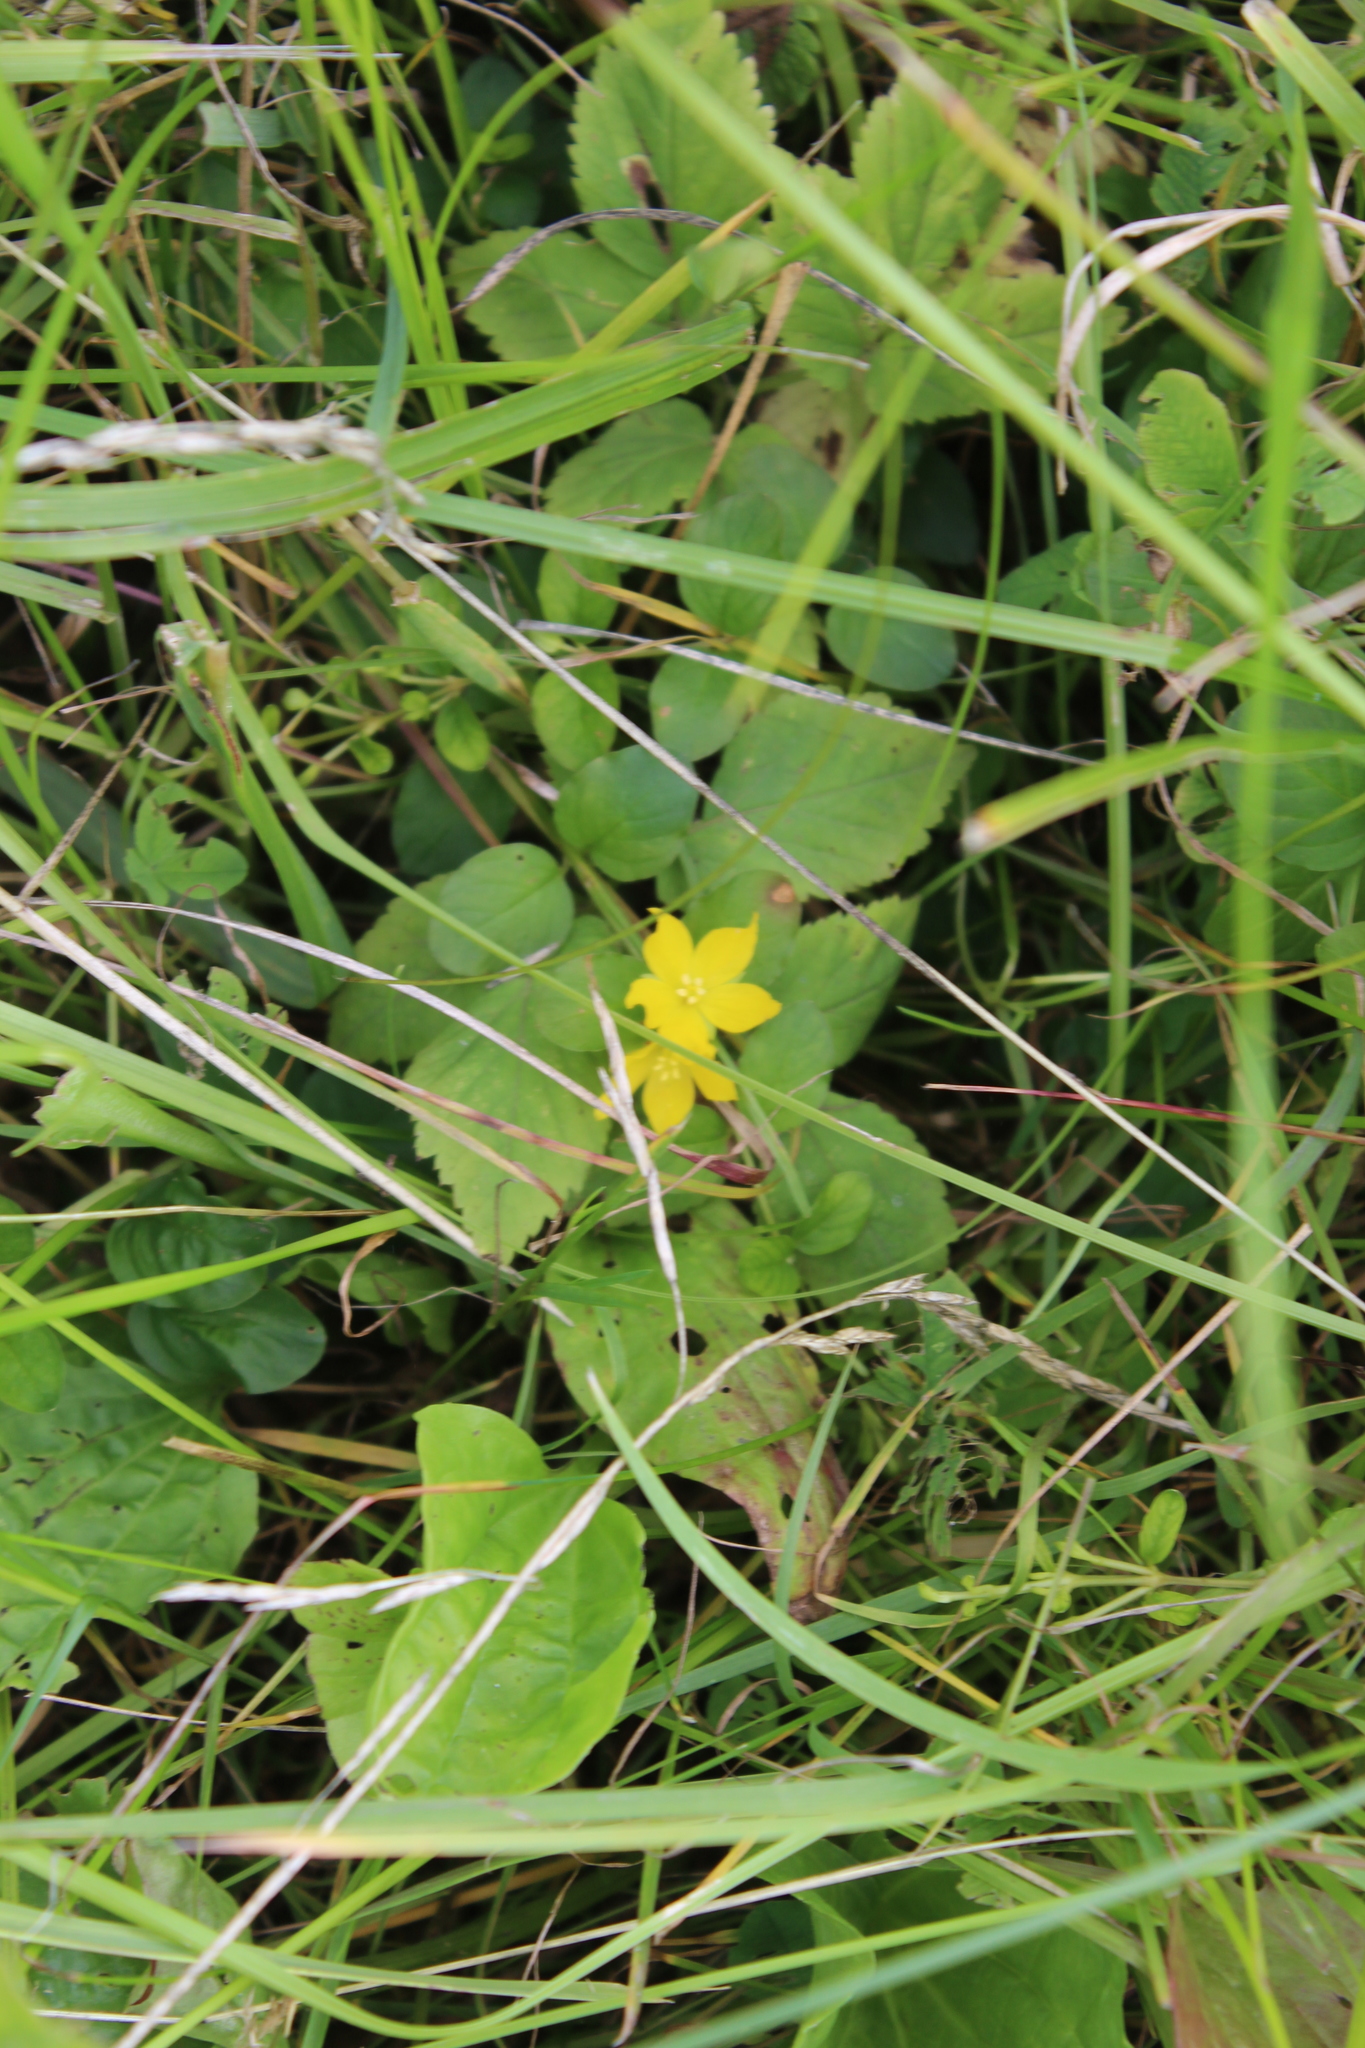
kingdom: Plantae
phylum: Tracheophyta
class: Magnoliopsida
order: Ericales
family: Primulaceae
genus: Lysimachia
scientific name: Lysimachia nummularia
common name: Moneywort
